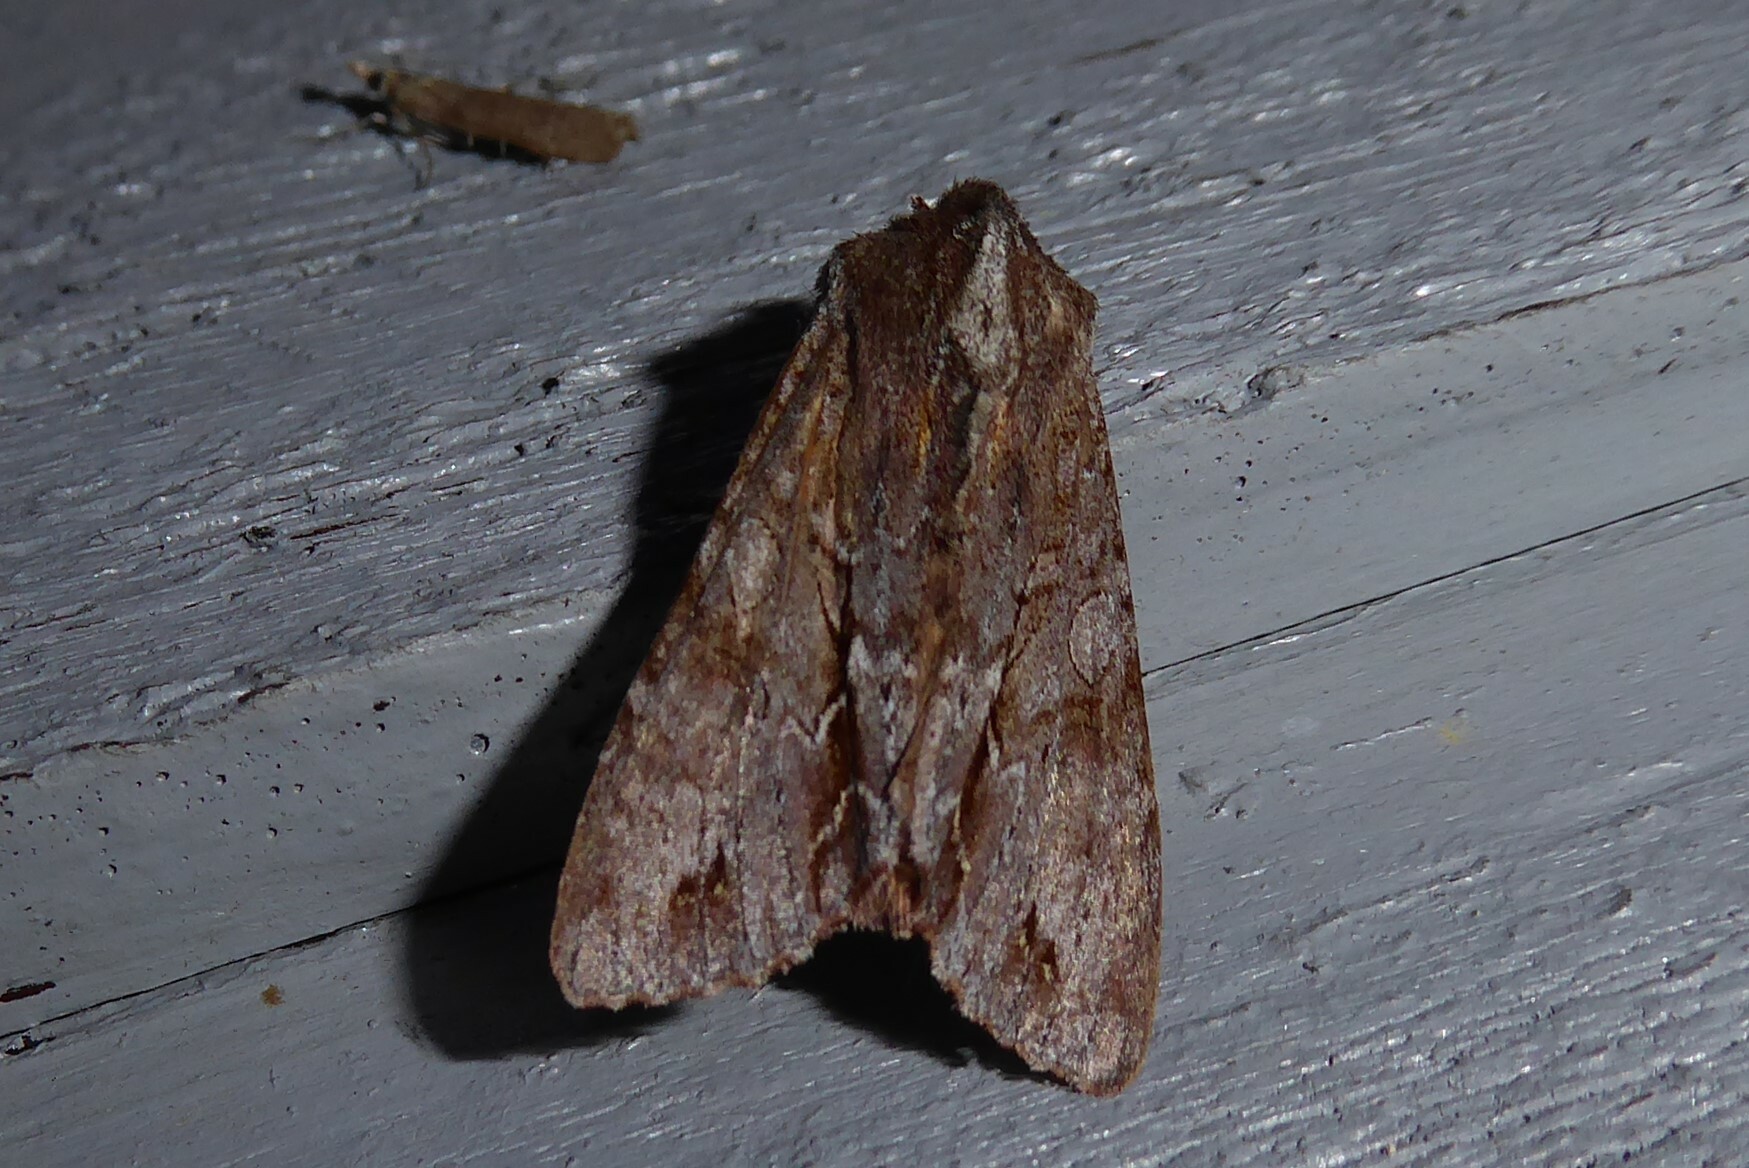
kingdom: Animalia
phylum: Arthropoda
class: Insecta
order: Lepidoptera
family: Noctuidae
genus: Ichneutica
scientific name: Ichneutica
